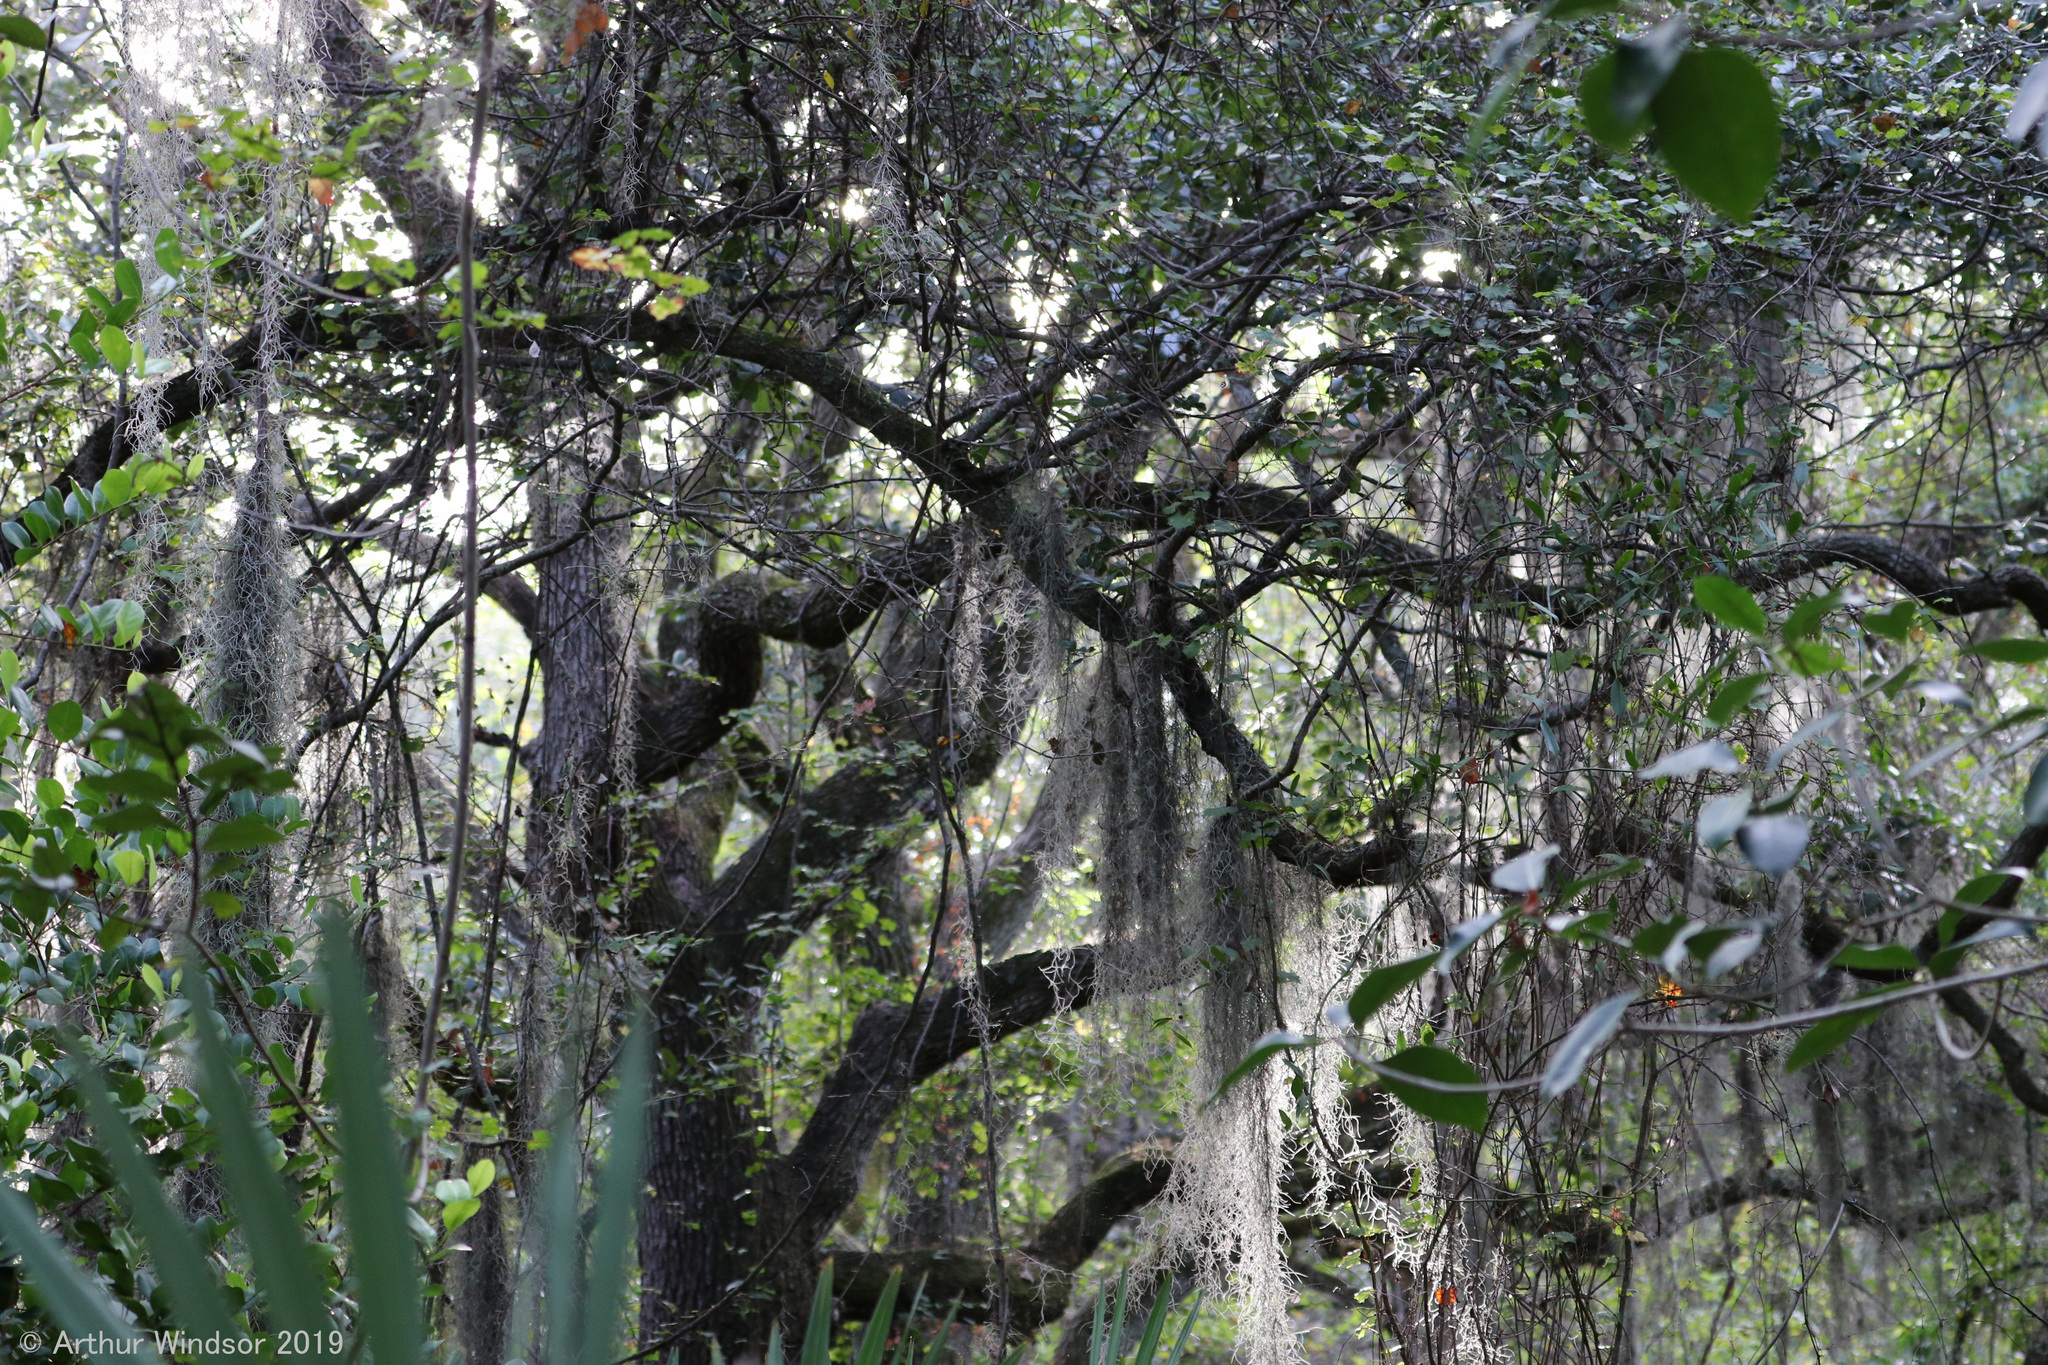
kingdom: Plantae
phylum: Tracheophyta
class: Liliopsida
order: Poales
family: Bromeliaceae
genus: Tillandsia
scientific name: Tillandsia usneoides
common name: Spanish moss
